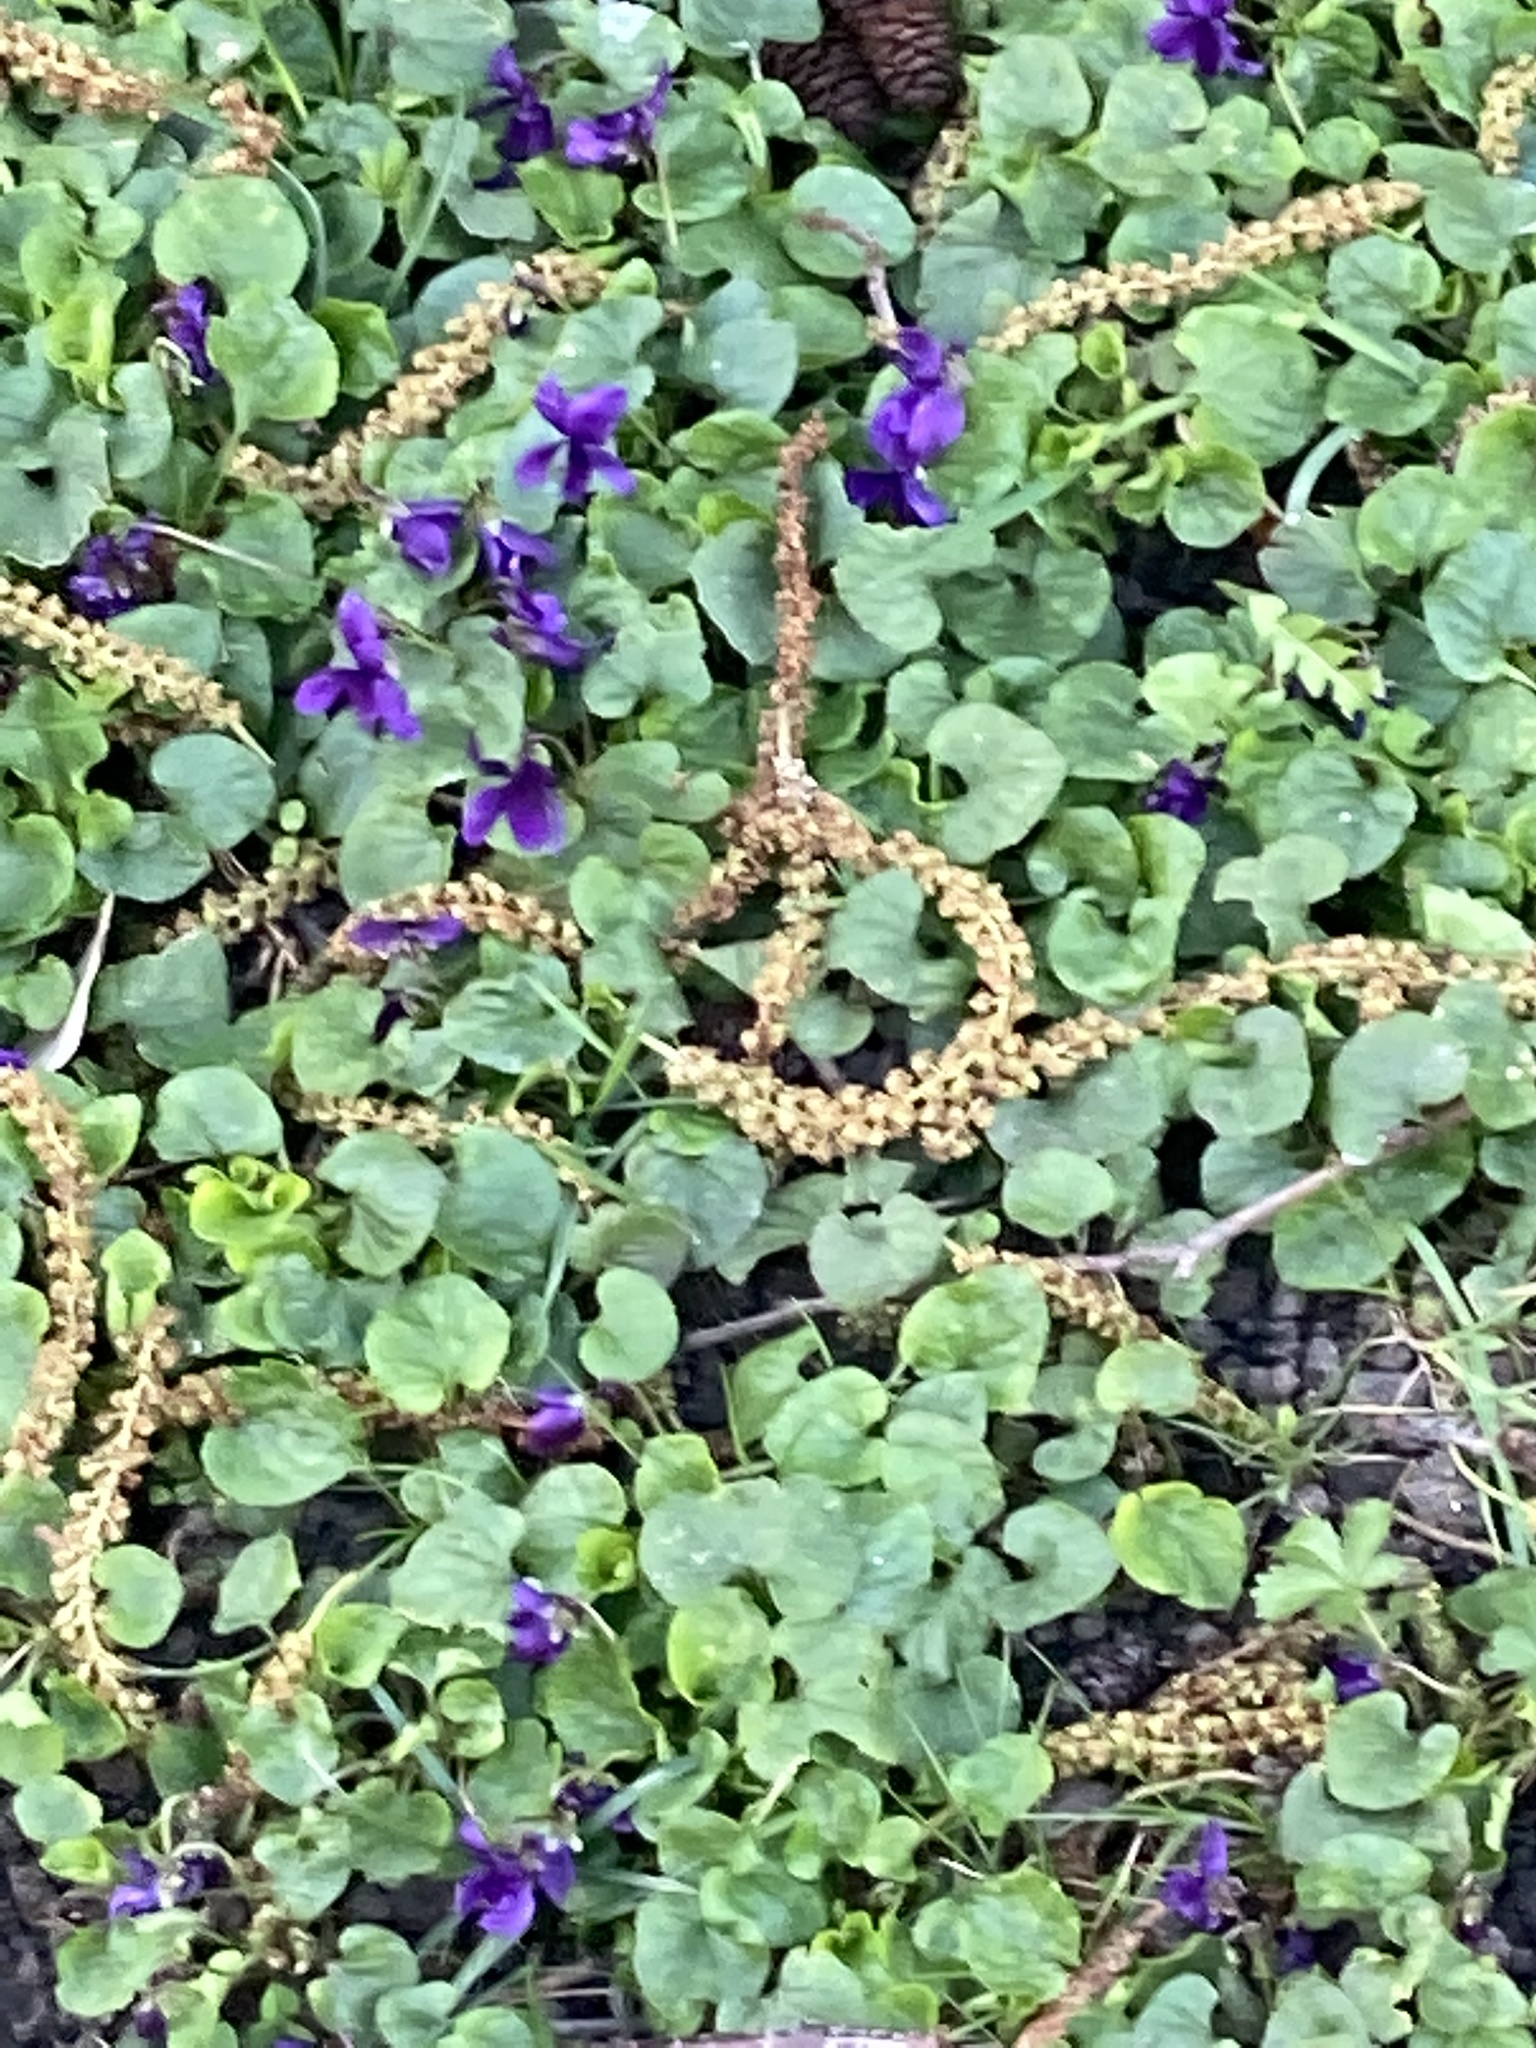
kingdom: Plantae
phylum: Tracheophyta
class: Magnoliopsida
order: Malpighiales
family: Violaceae
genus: Viola
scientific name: Viola odorata
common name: Sweet violet
